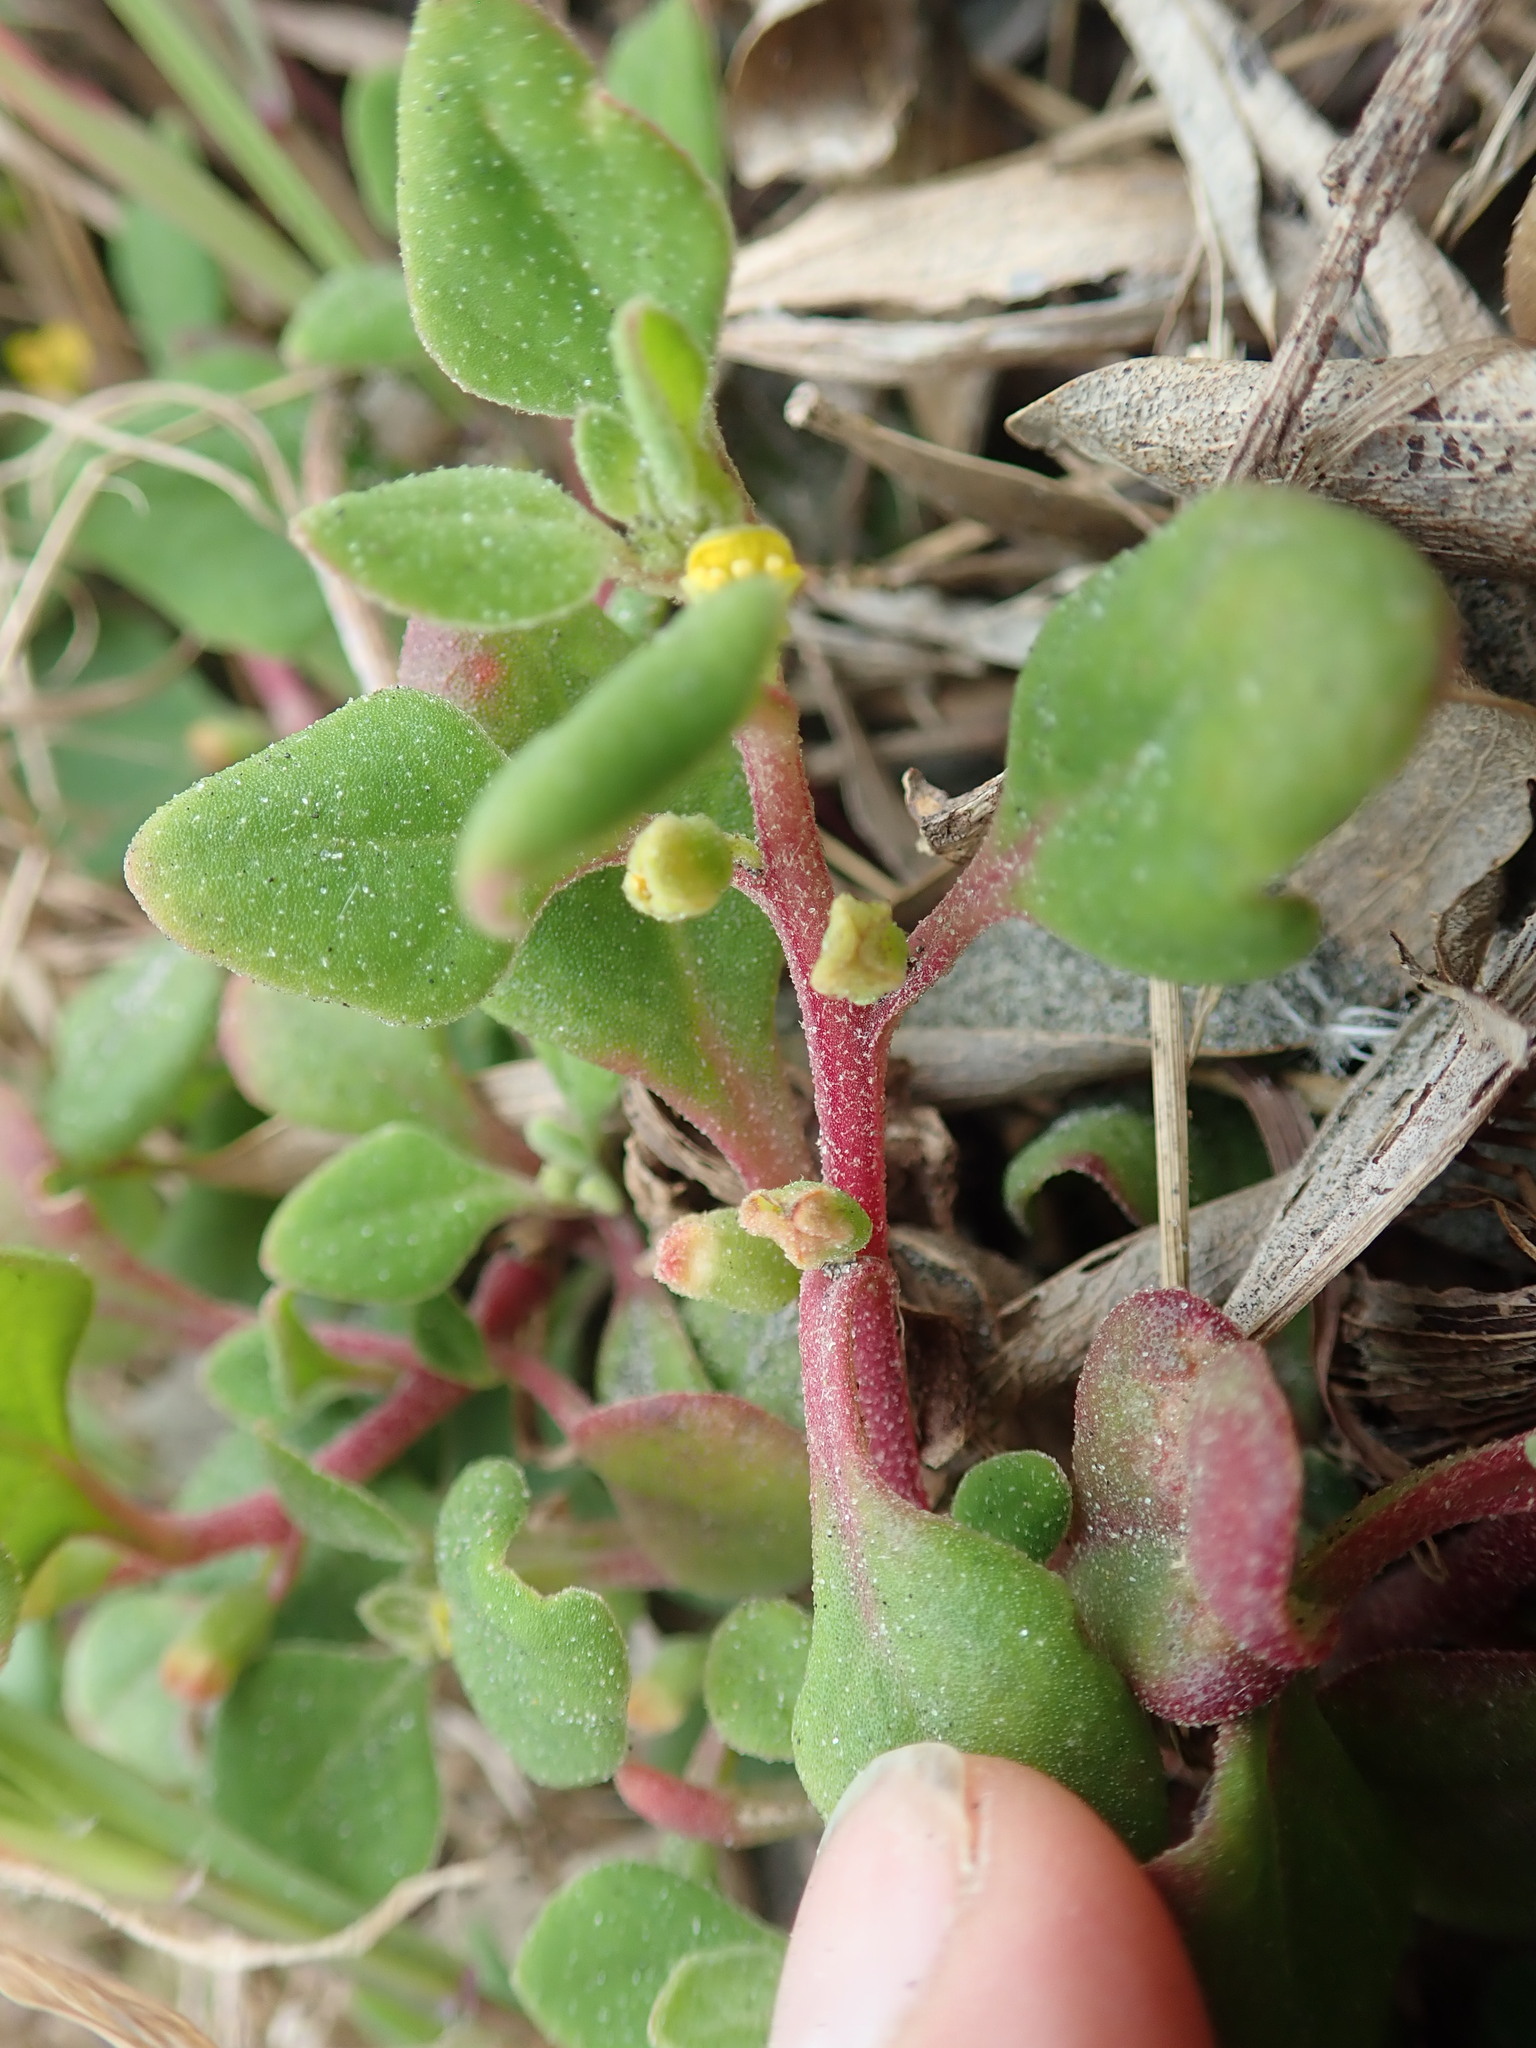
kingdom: Plantae
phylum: Tracheophyta
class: Magnoliopsida
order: Caryophyllales
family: Aizoaceae
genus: Tetragonia
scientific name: Tetragonia implexicoma
